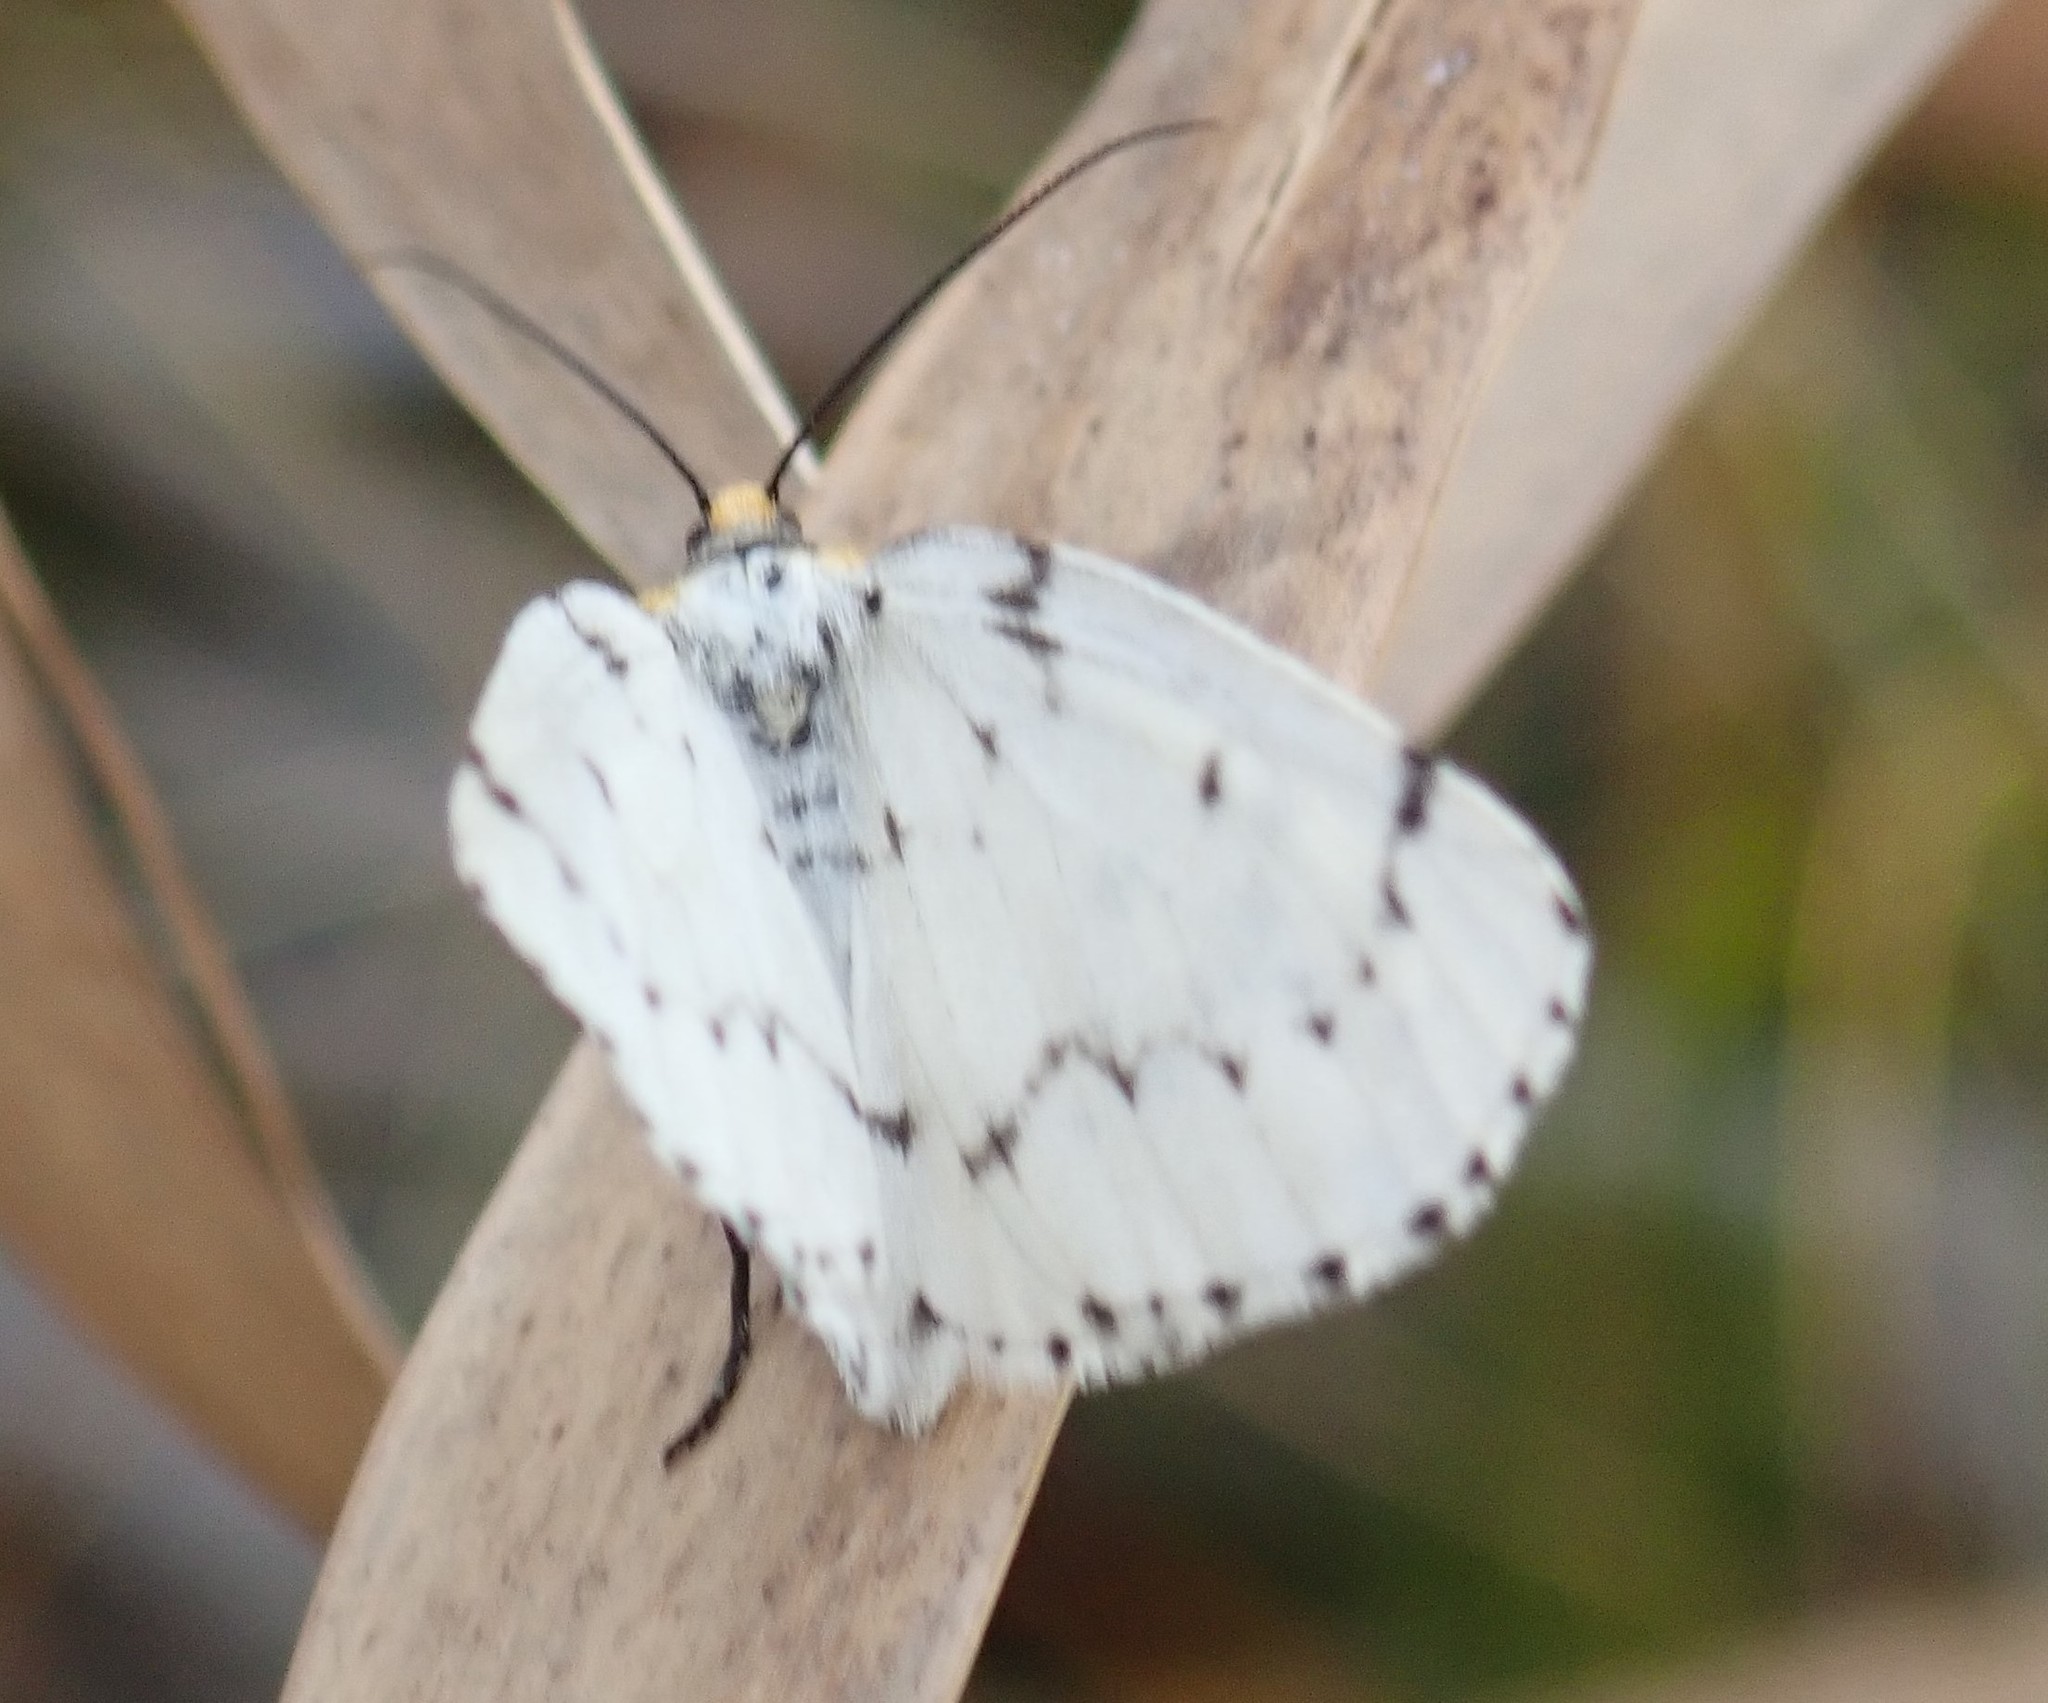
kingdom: Animalia
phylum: Arthropoda
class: Insecta
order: Lepidoptera
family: Geometridae
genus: Cingilia
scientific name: Cingilia catenaria
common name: Chain-dotted geometer
